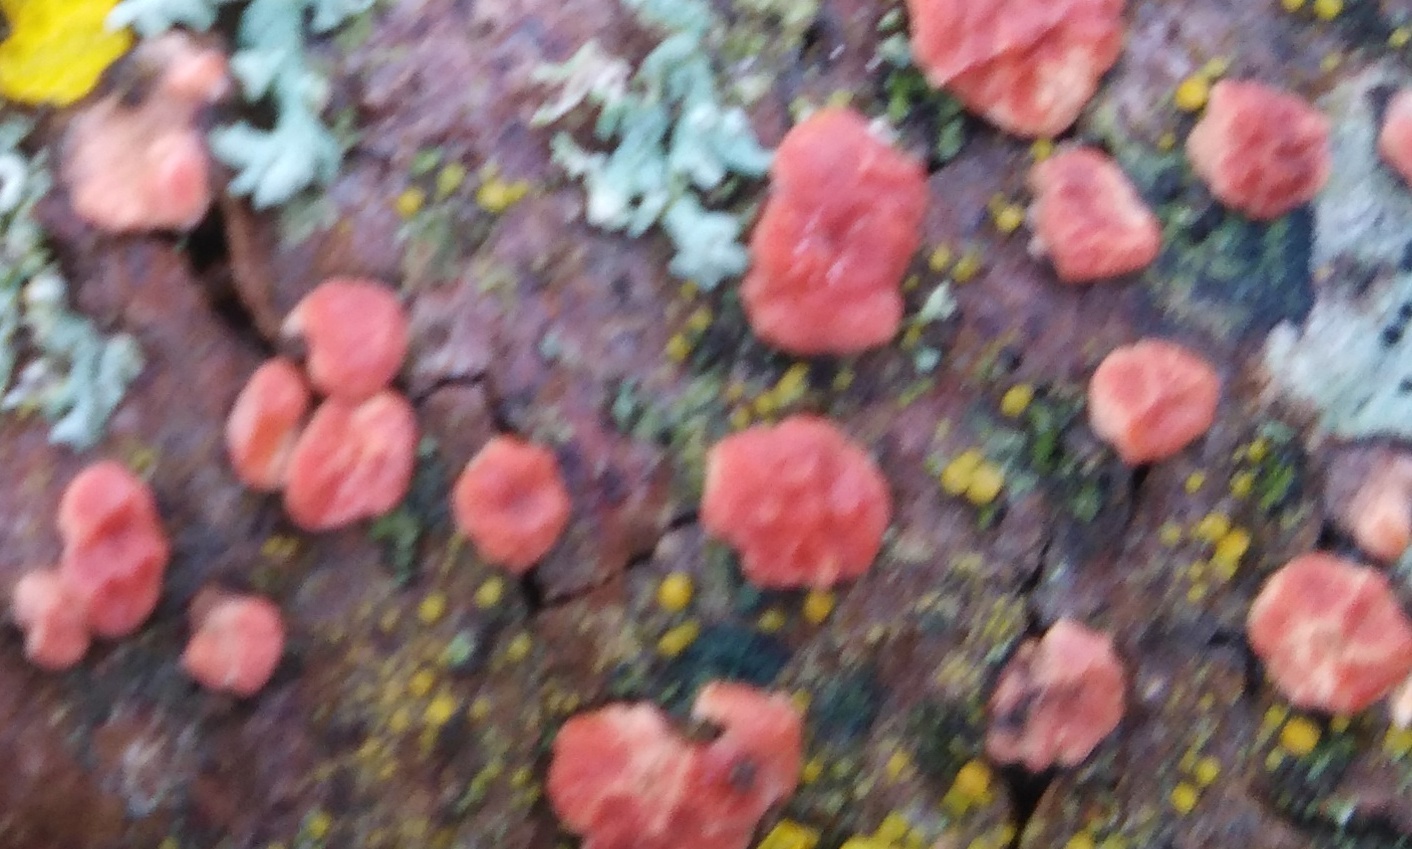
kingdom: Fungi
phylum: Basidiomycota
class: Agaricomycetes
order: Russulales
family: Peniophoraceae
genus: Peniophora
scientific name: Peniophora rufa
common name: Red tree brain fungus
